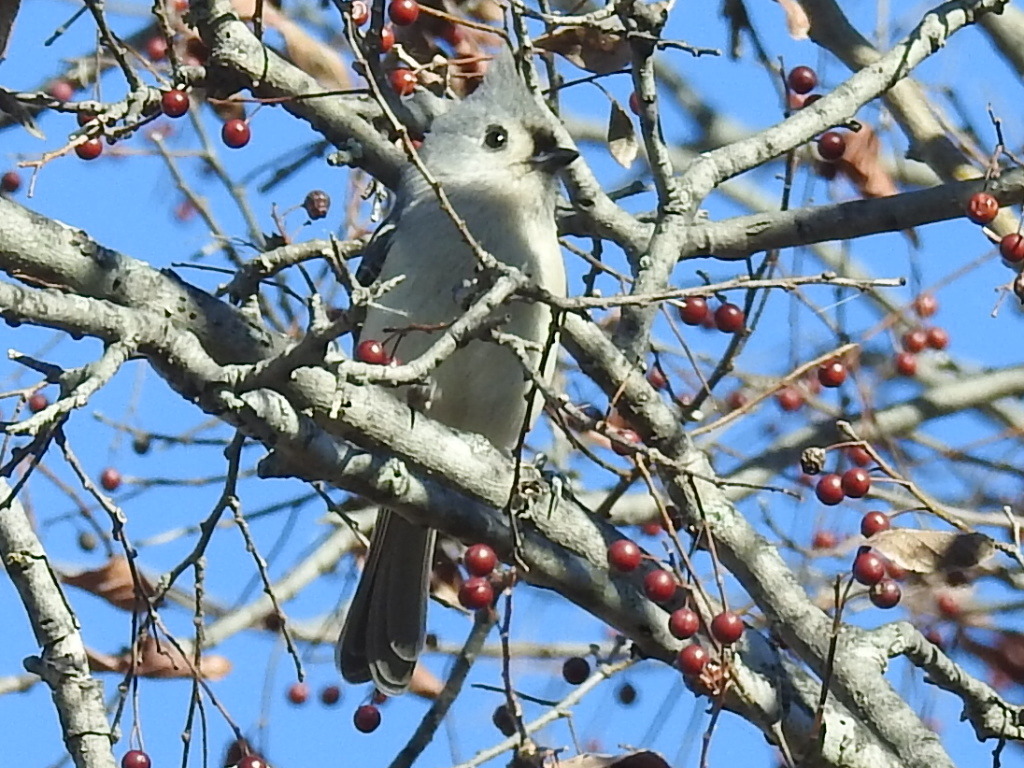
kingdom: Animalia
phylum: Chordata
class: Aves
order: Passeriformes
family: Paridae
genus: Baeolophus
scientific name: Baeolophus bicolor
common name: Tufted titmouse
